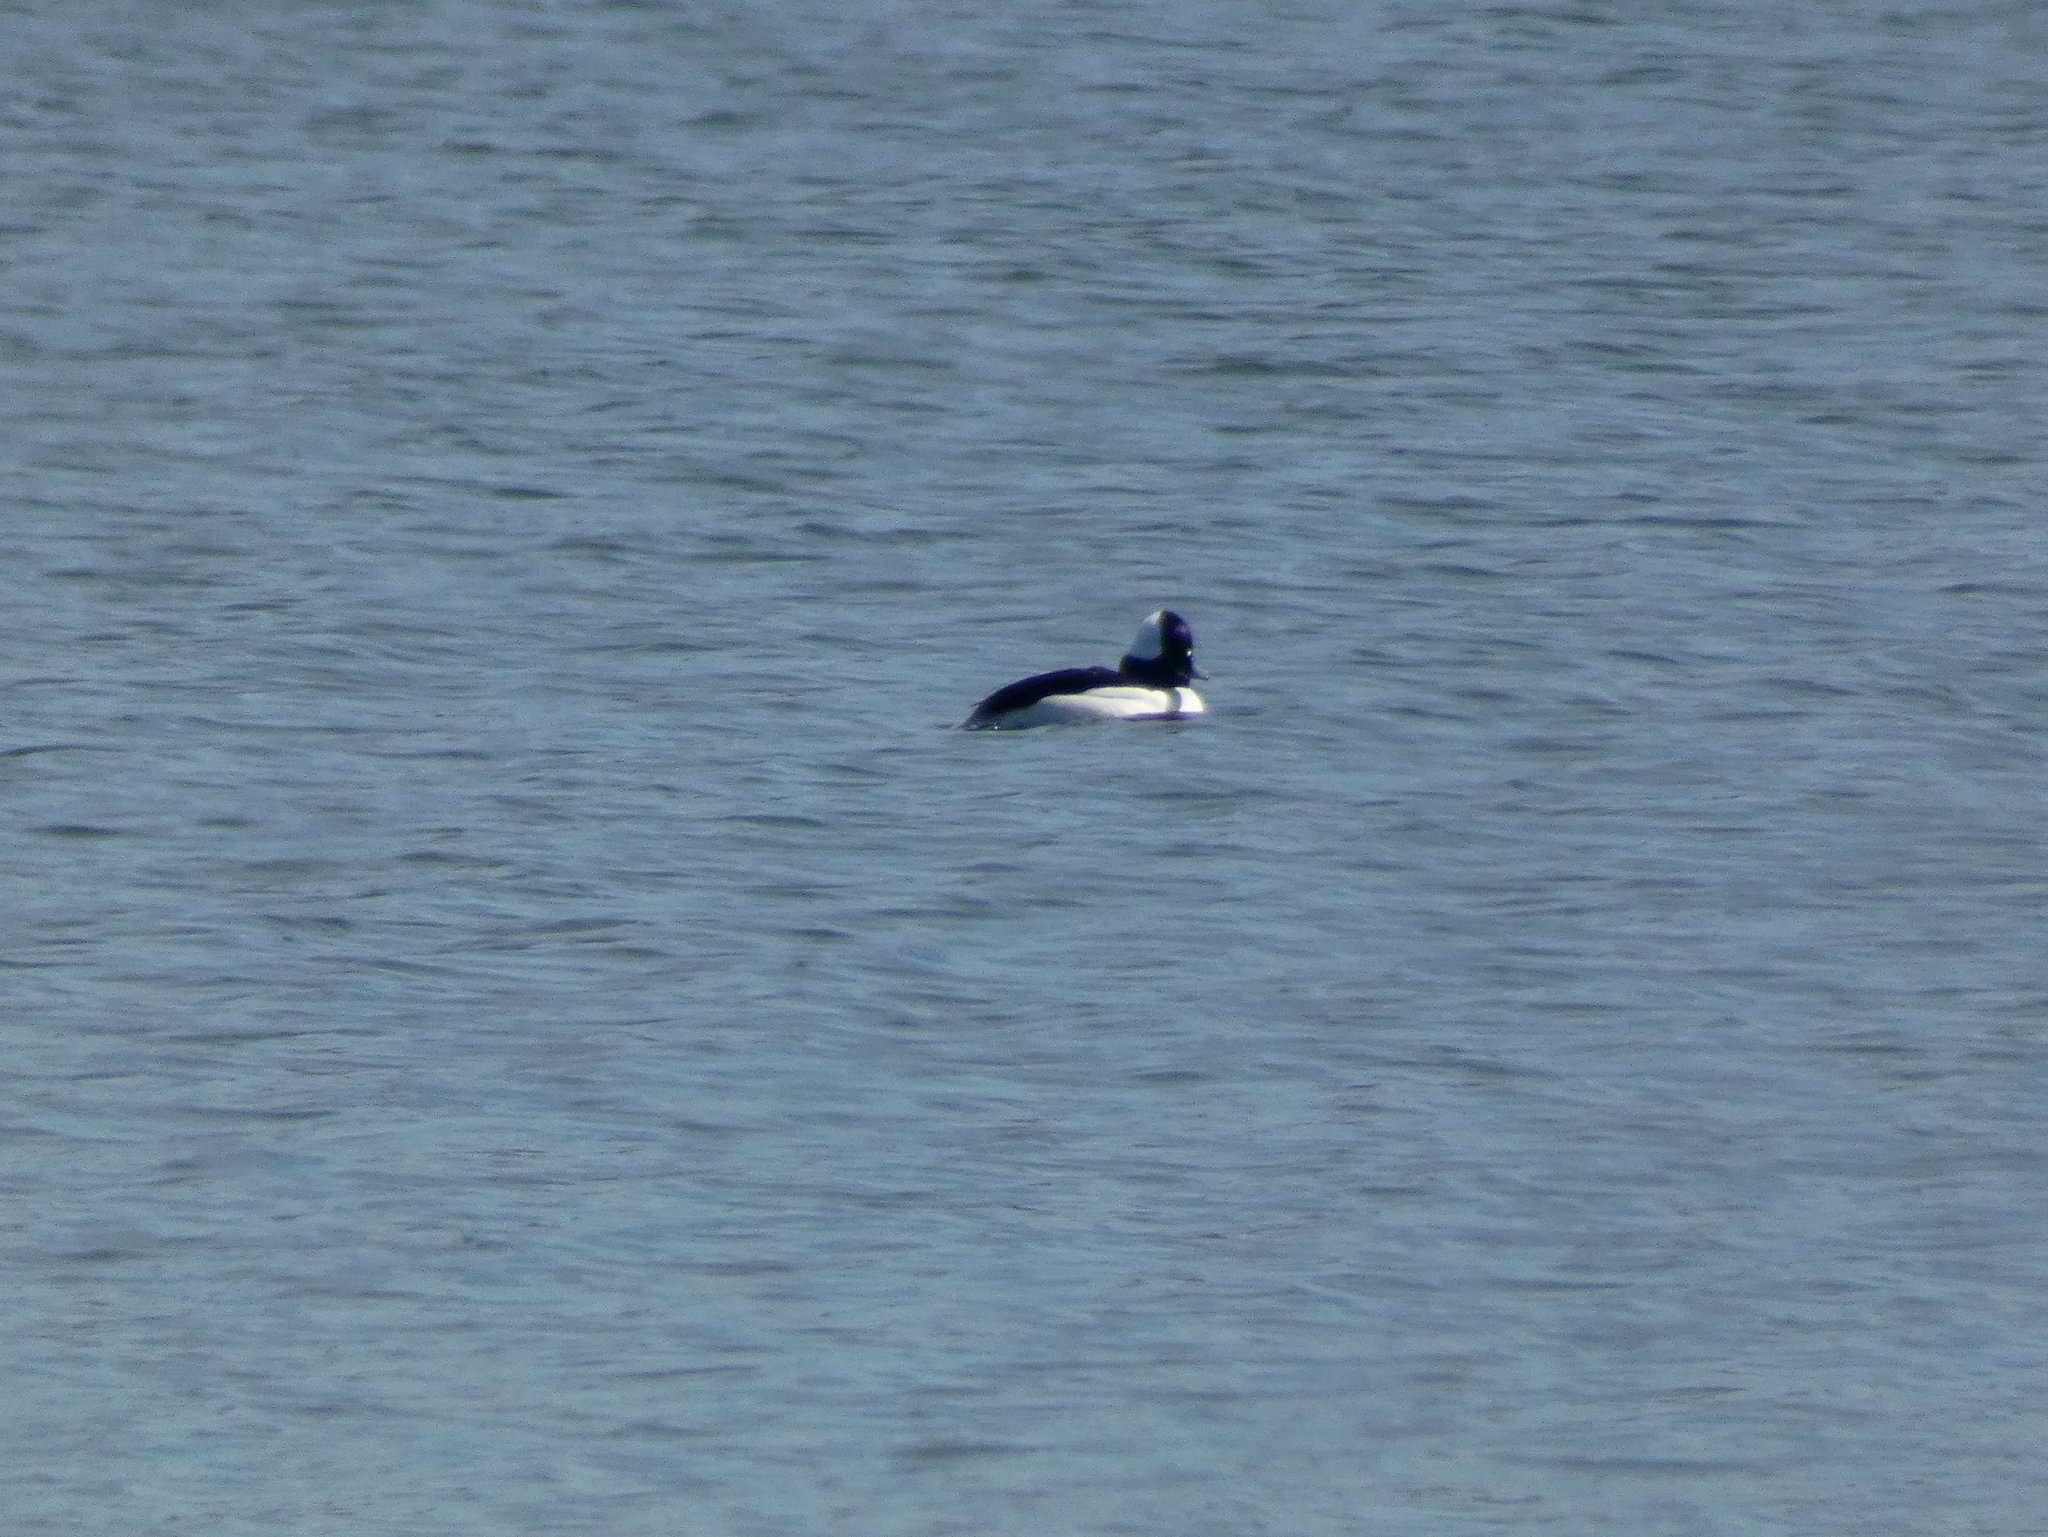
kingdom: Animalia
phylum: Chordata
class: Aves
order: Anseriformes
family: Anatidae
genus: Bucephala
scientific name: Bucephala albeola
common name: Bufflehead
